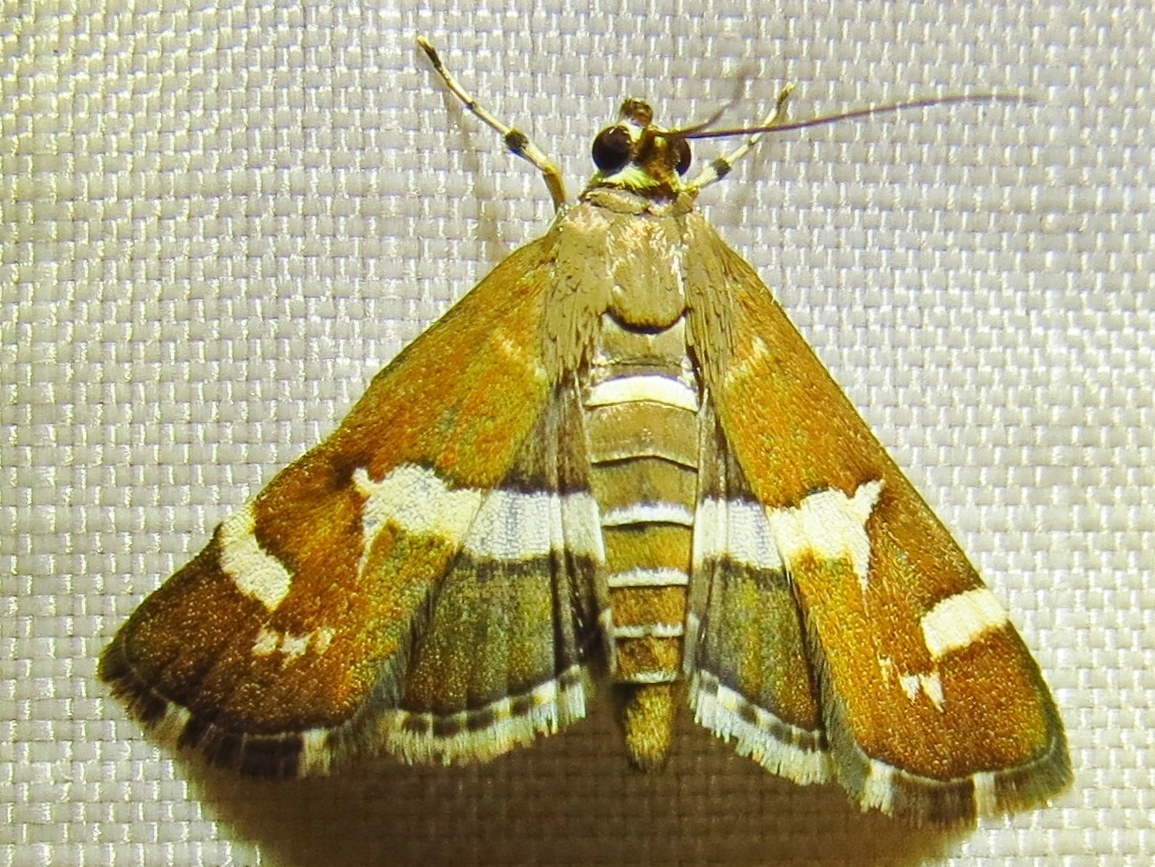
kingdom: Animalia
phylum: Arthropoda
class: Insecta
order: Lepidoptera
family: Crambidae
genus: Spoladea
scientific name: Spoladea recurvalis
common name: Beet webworm moth
